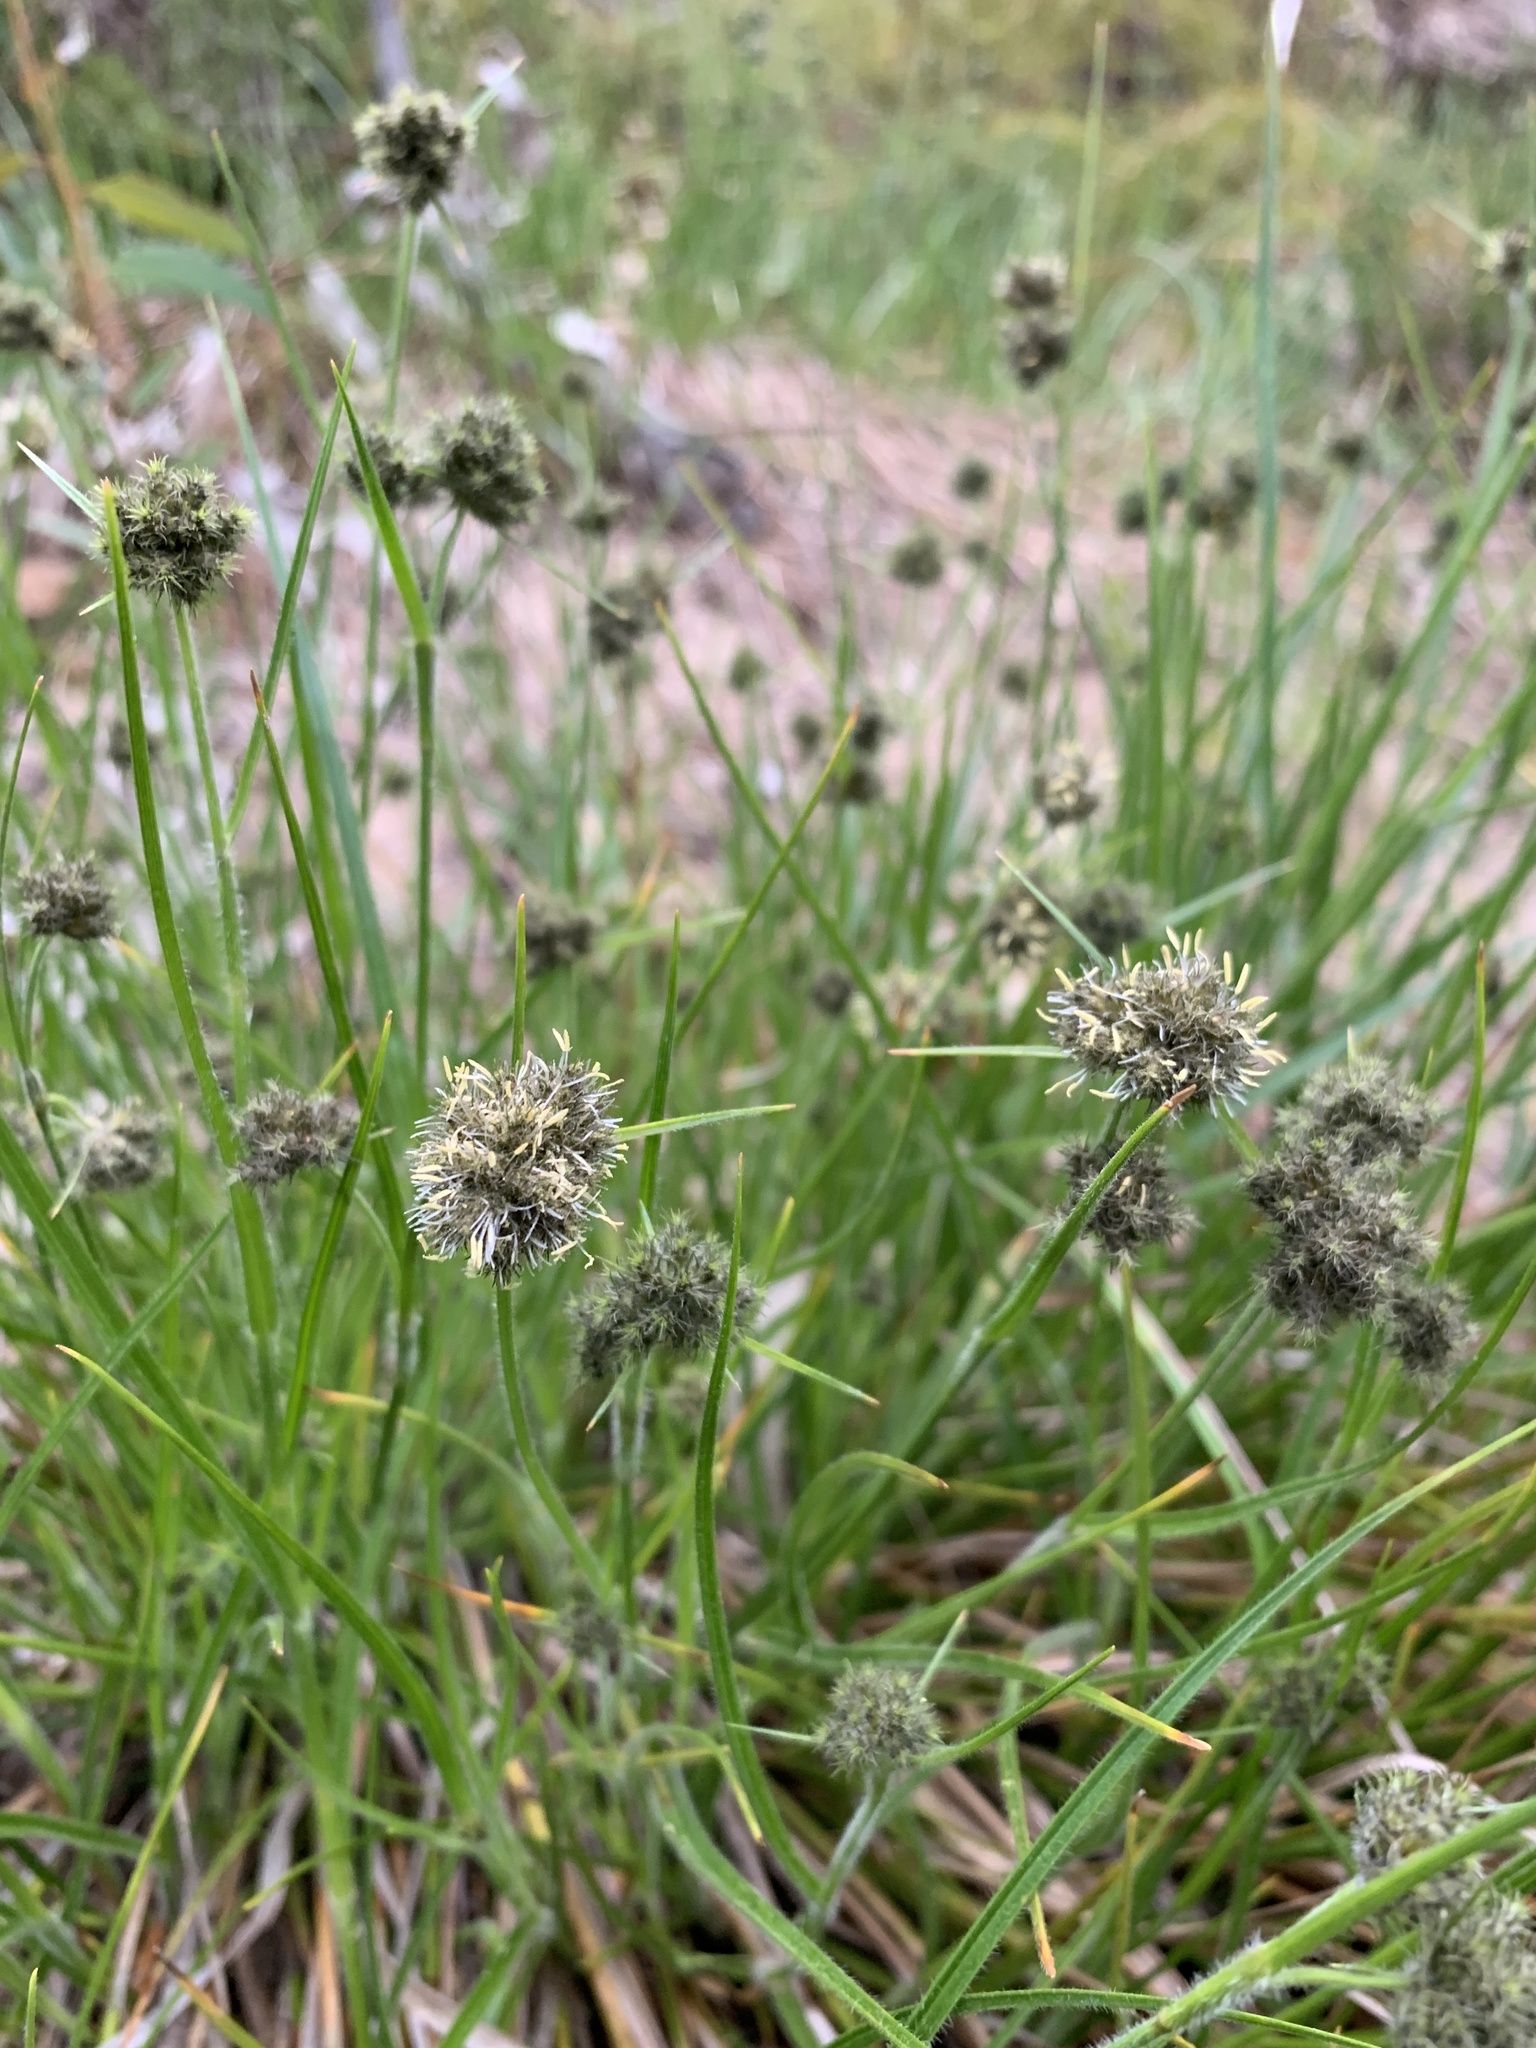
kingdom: Plantae
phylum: Tracheophyta
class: Liliopsida
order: Poales
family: Cyperaceae
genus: Fuirena
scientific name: Fuirena hirsuta
